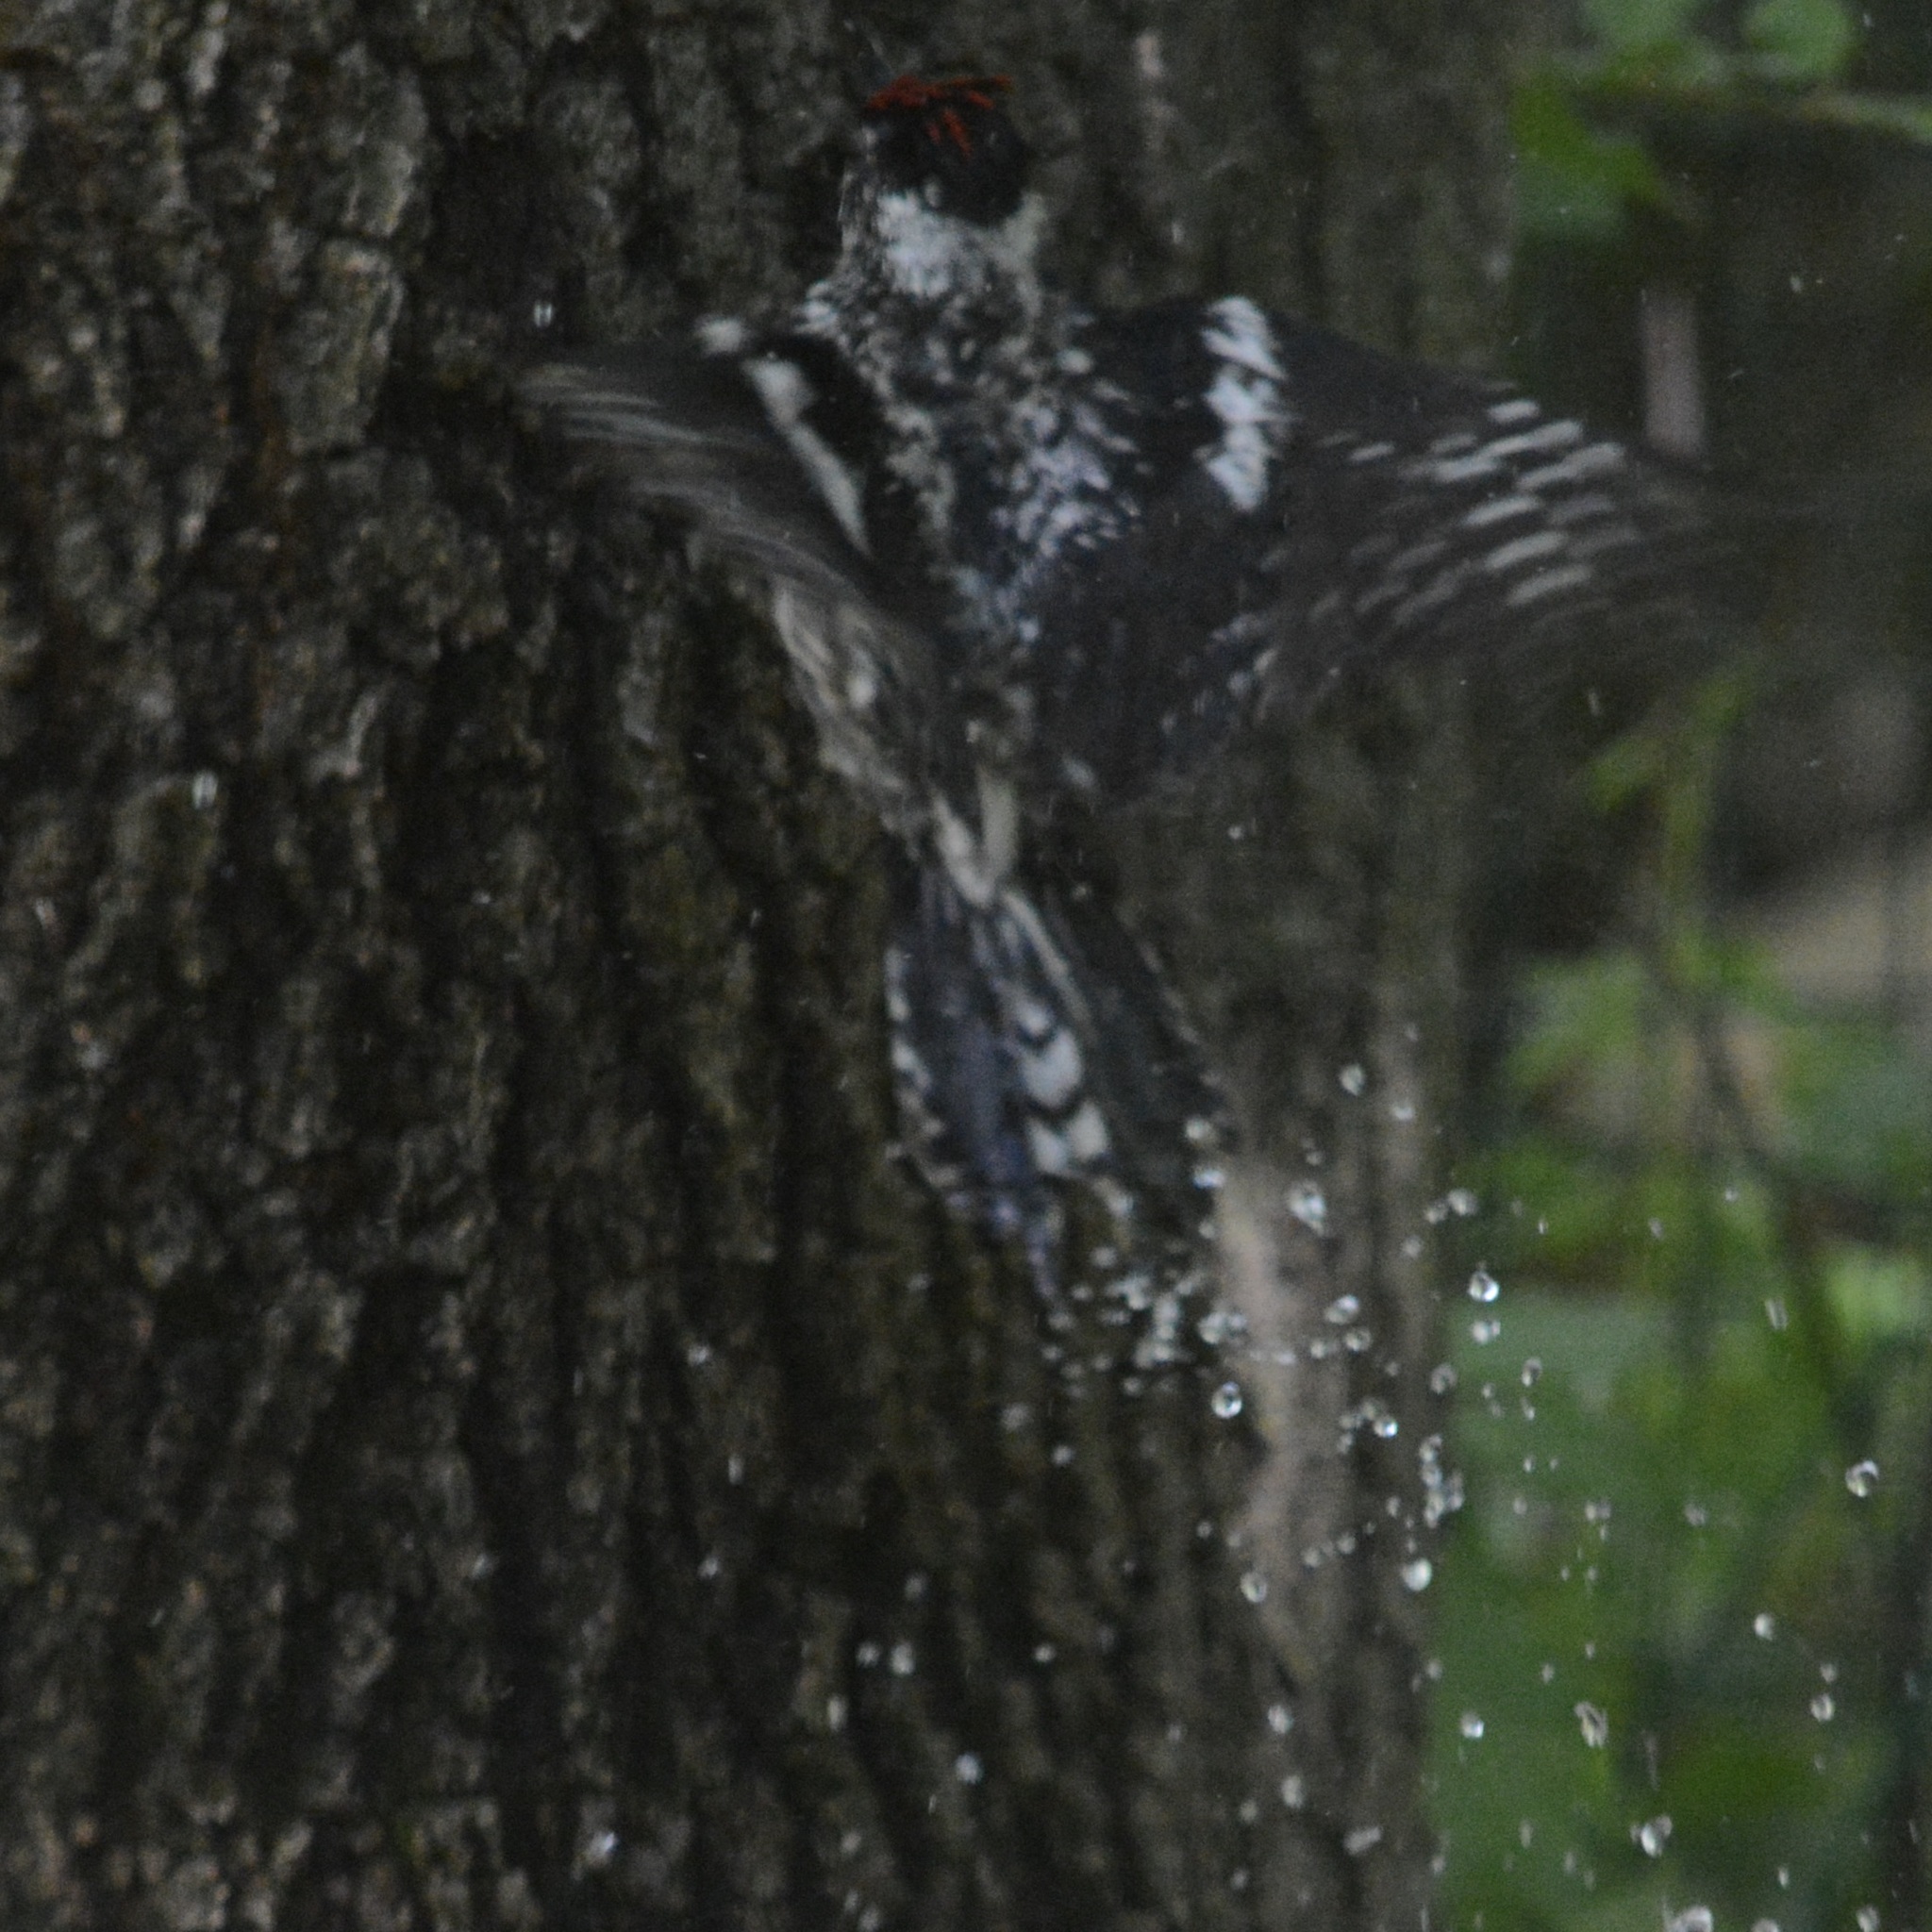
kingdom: Animalia
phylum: Chordata
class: Aves
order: Piciformes
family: Picidae
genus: Sphyrapicus
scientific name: Sphyrapicus varius
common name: Yellow-bellied sapsucker
